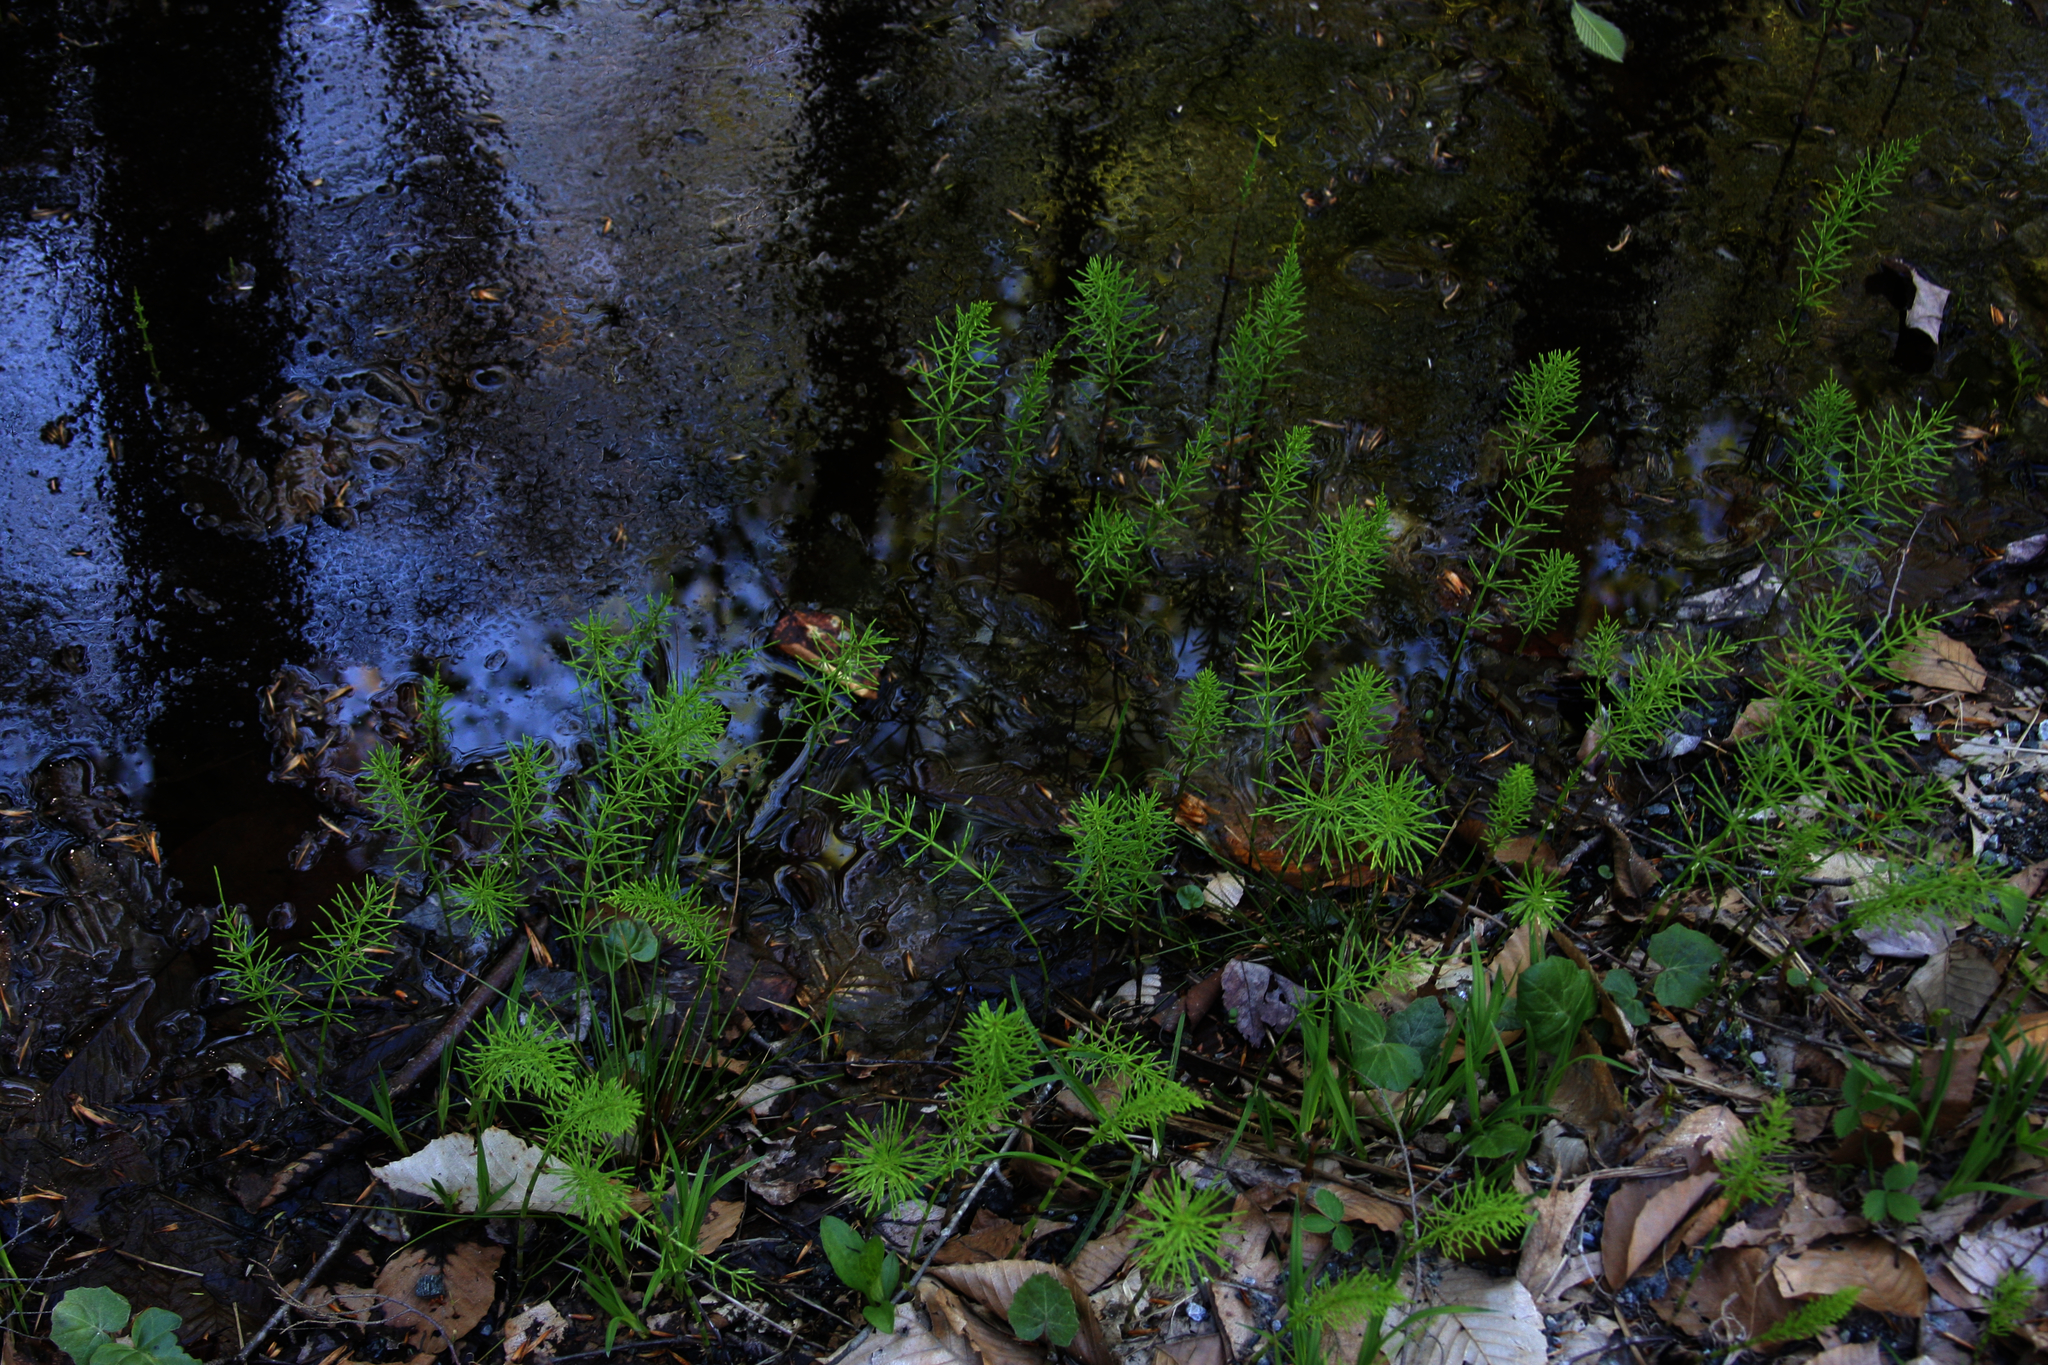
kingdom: Plantae
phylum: Tracheophyta
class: Polypodiopsida
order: Equisetales
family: Equisetaceae
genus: Equisetum
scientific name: Equisetum arvense
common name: Field horsetail
